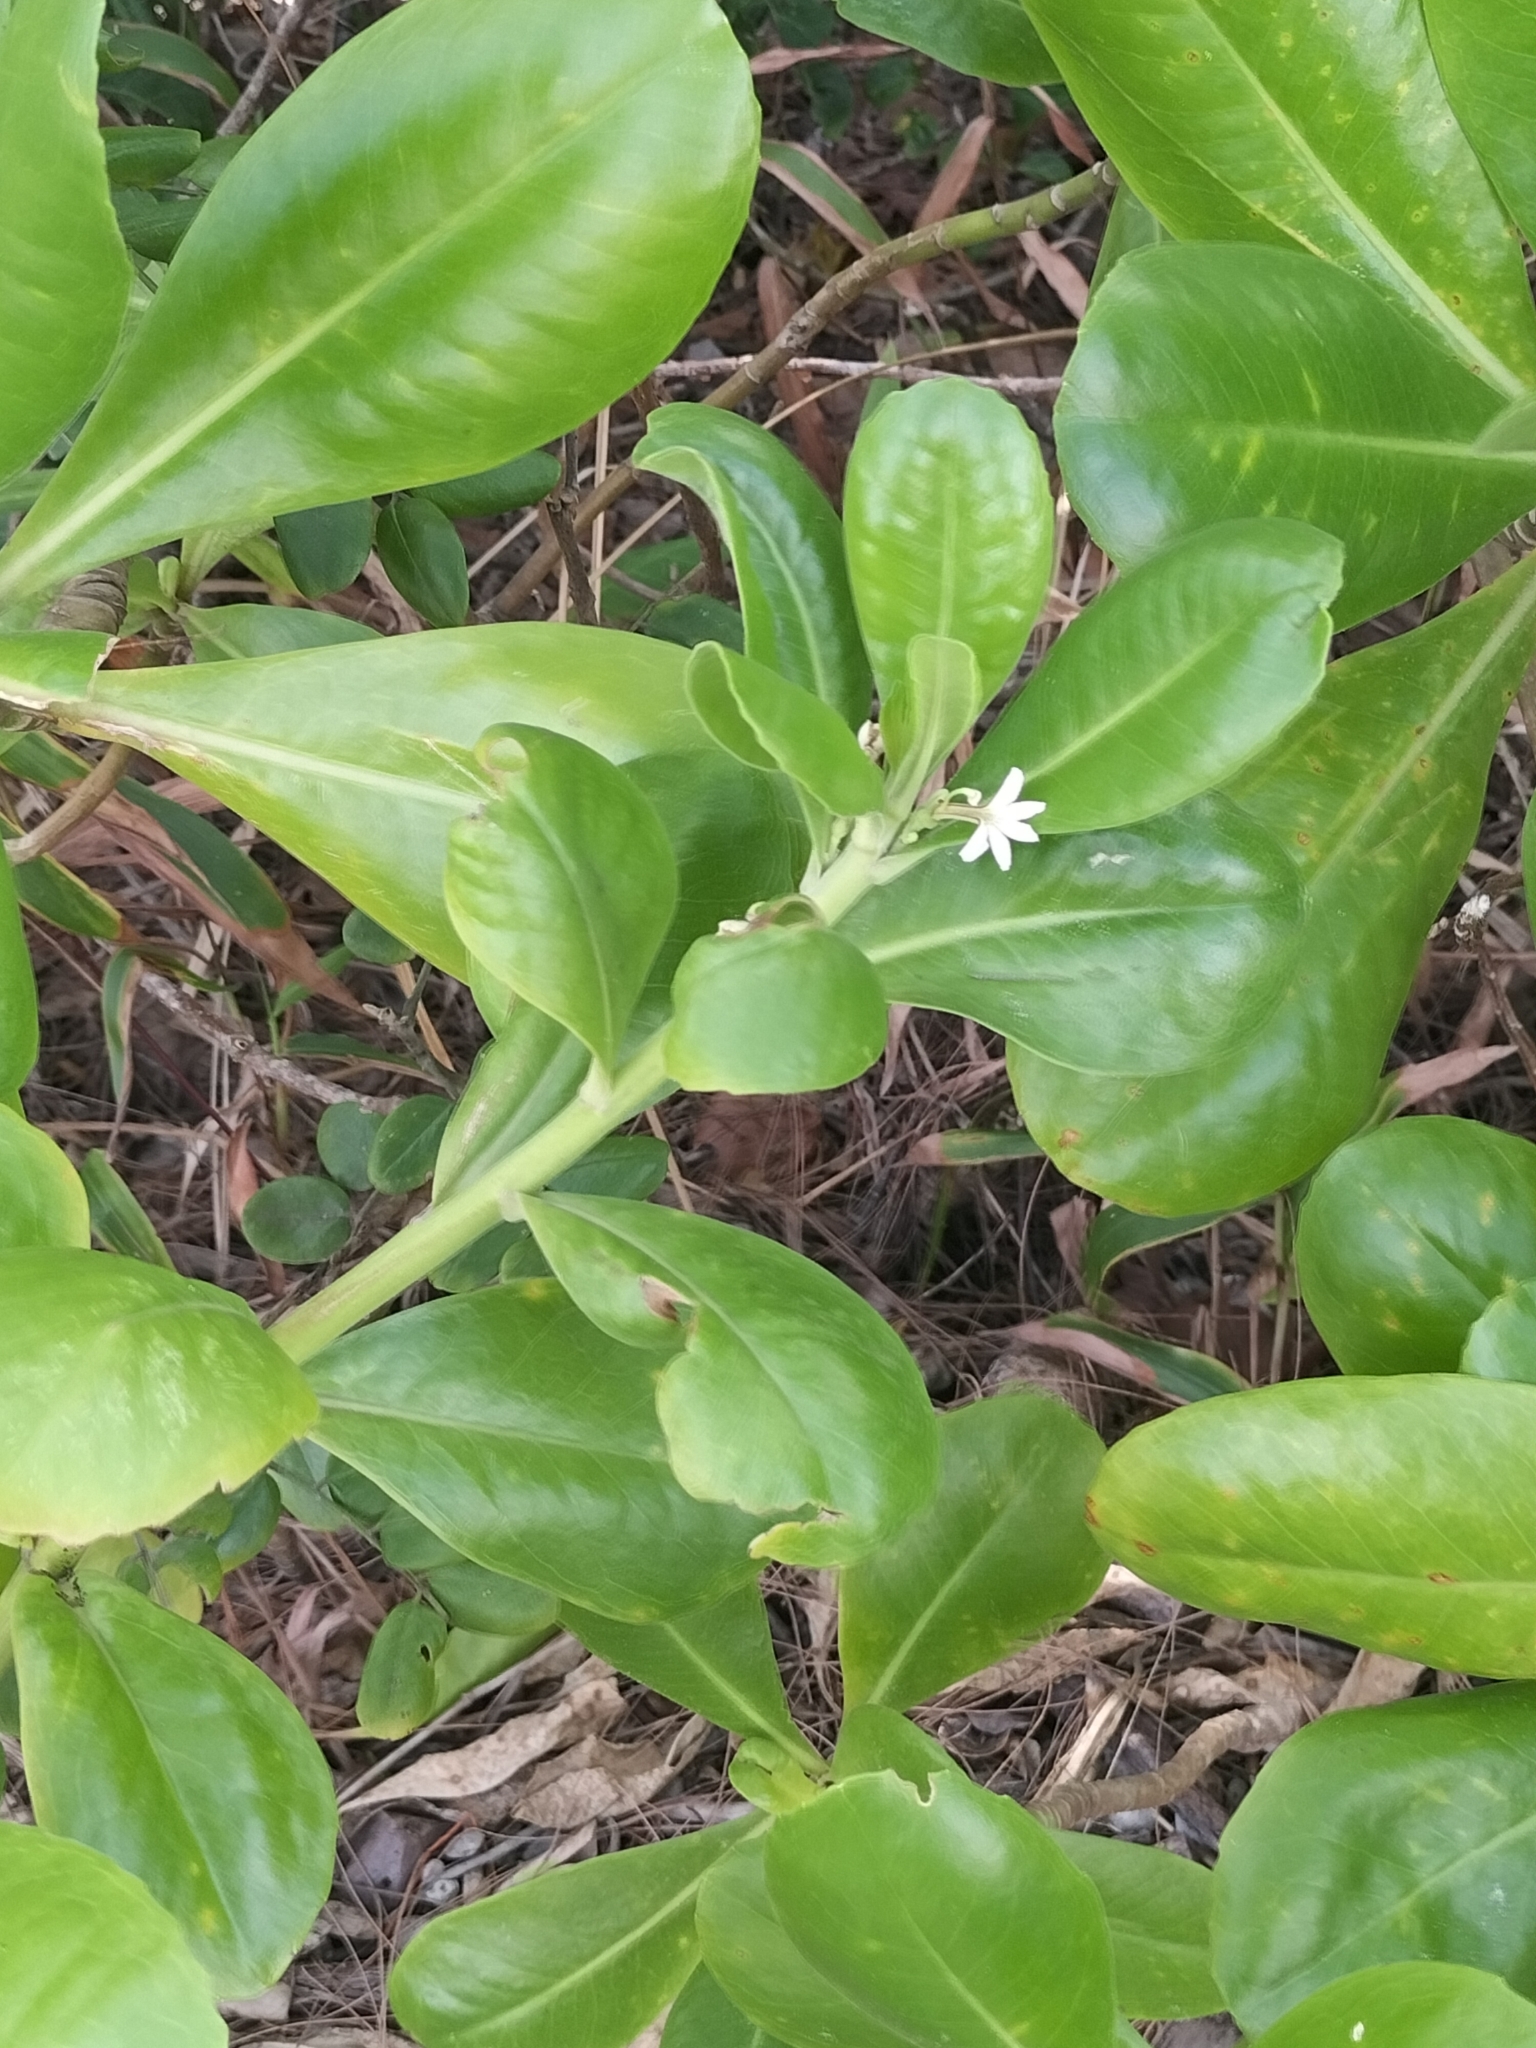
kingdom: Plantae
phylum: Tracheophyta
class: Magnoliopsida
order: Asterales
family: Goodeniaceae
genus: Scaevola
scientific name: Scaevola taccada
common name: Sea lettucetree
